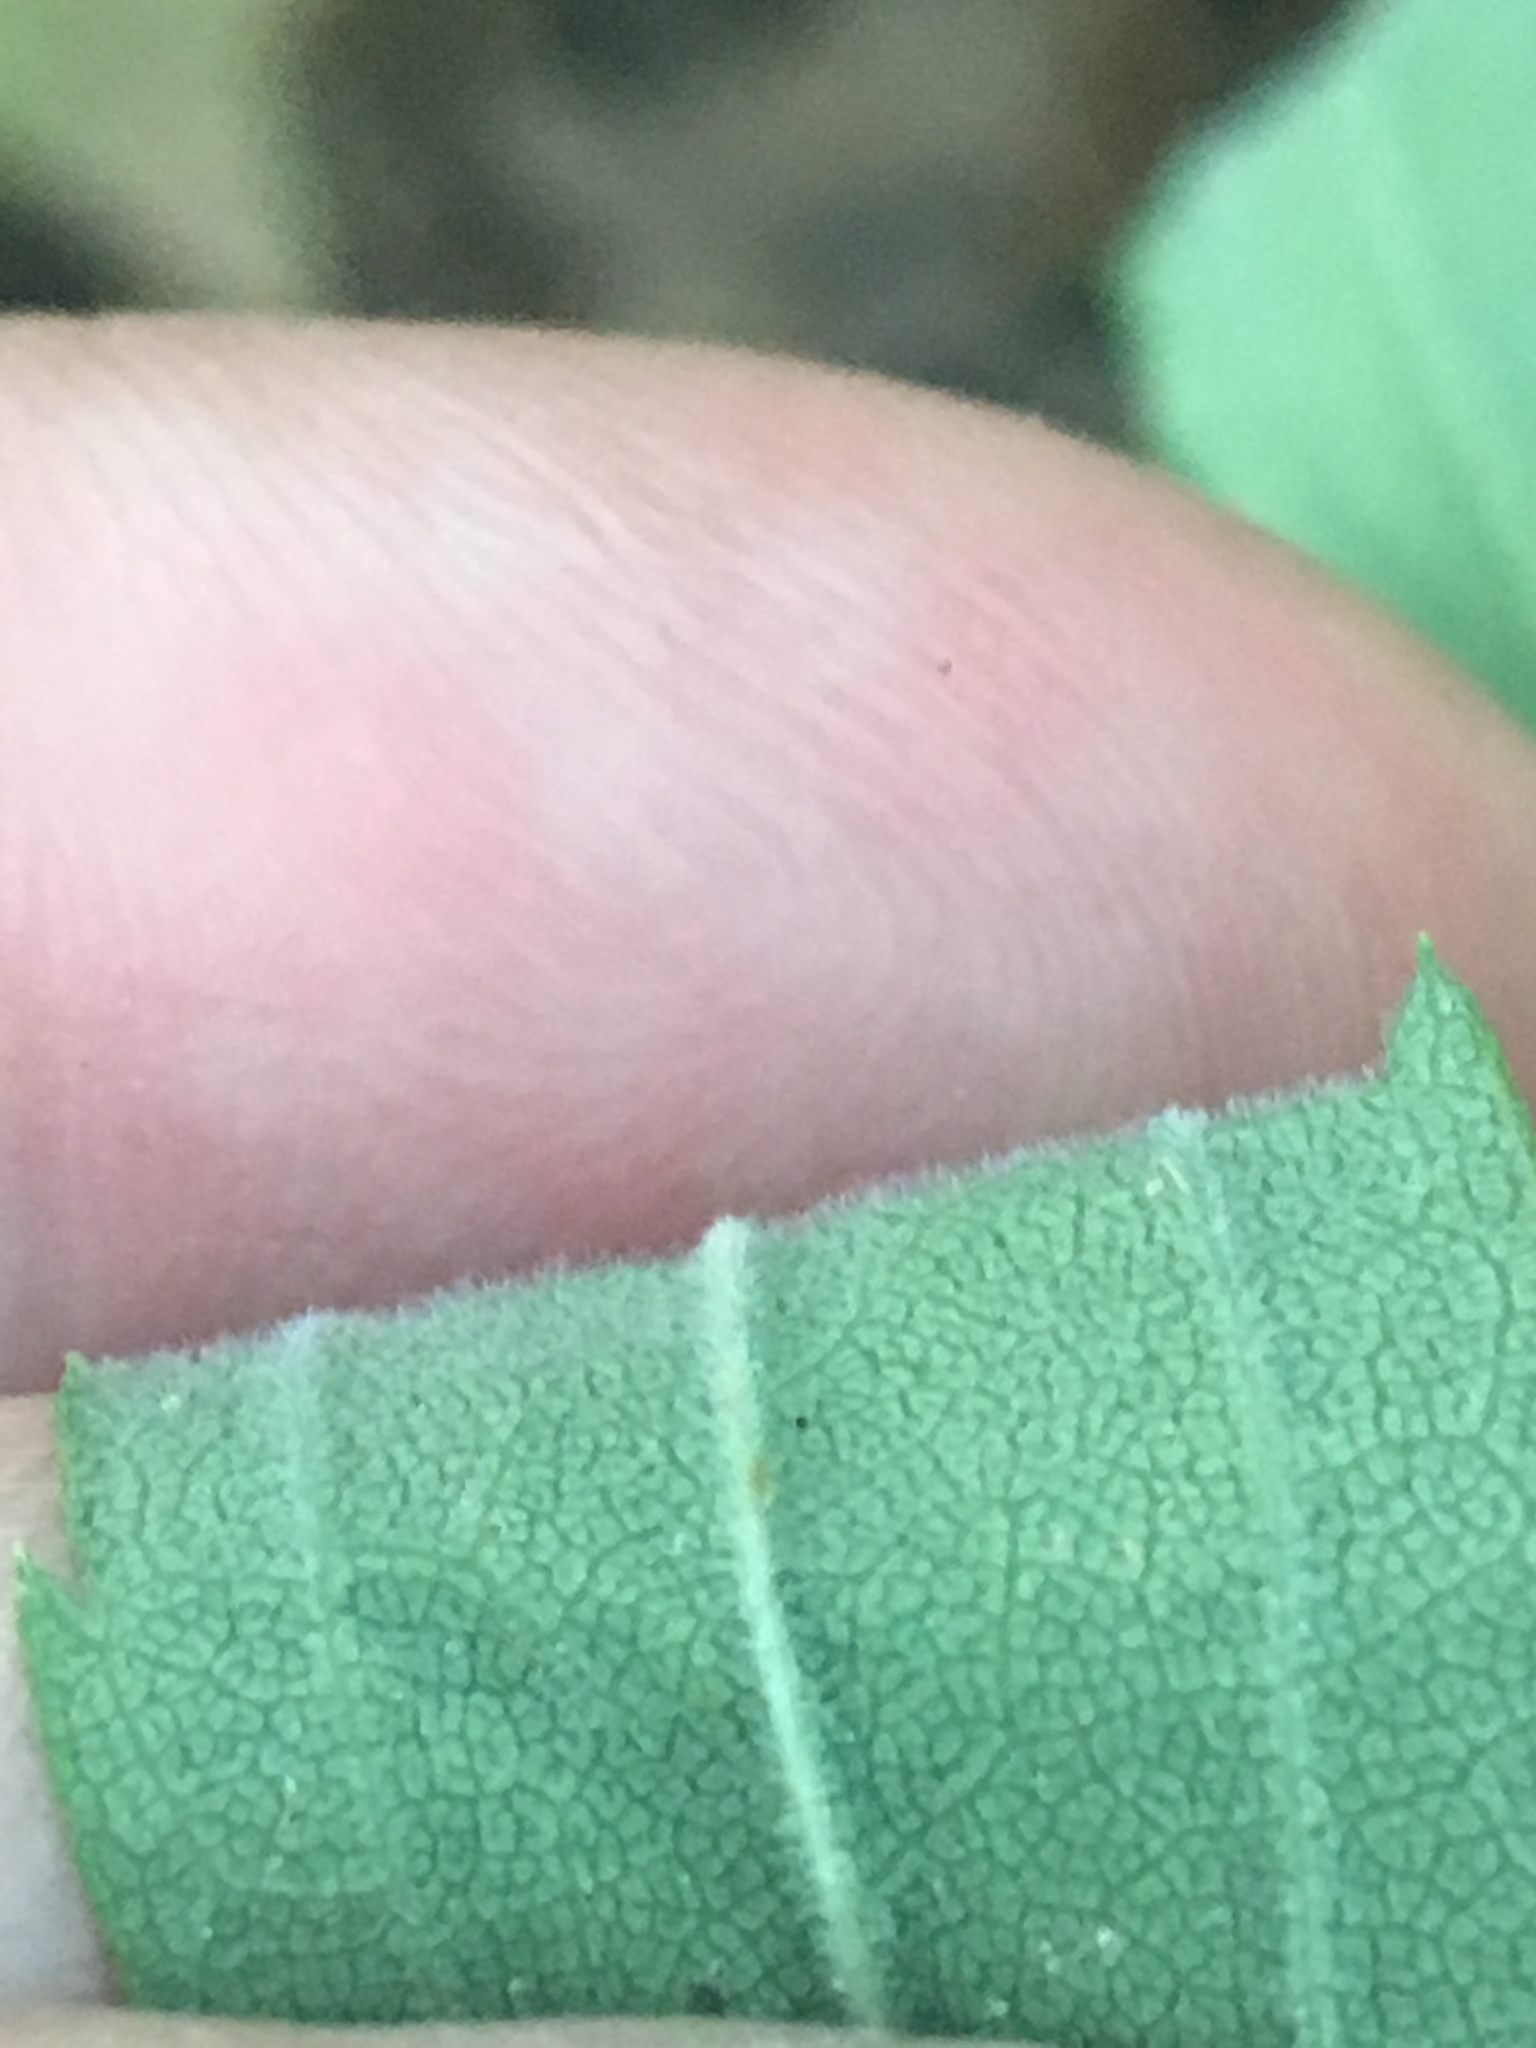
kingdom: Plantae
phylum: Tracheophyta
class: Magnoliopsida
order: Asterales
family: Asteraceae
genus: Solidago
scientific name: Solidago altissima
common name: Late goldenrod
